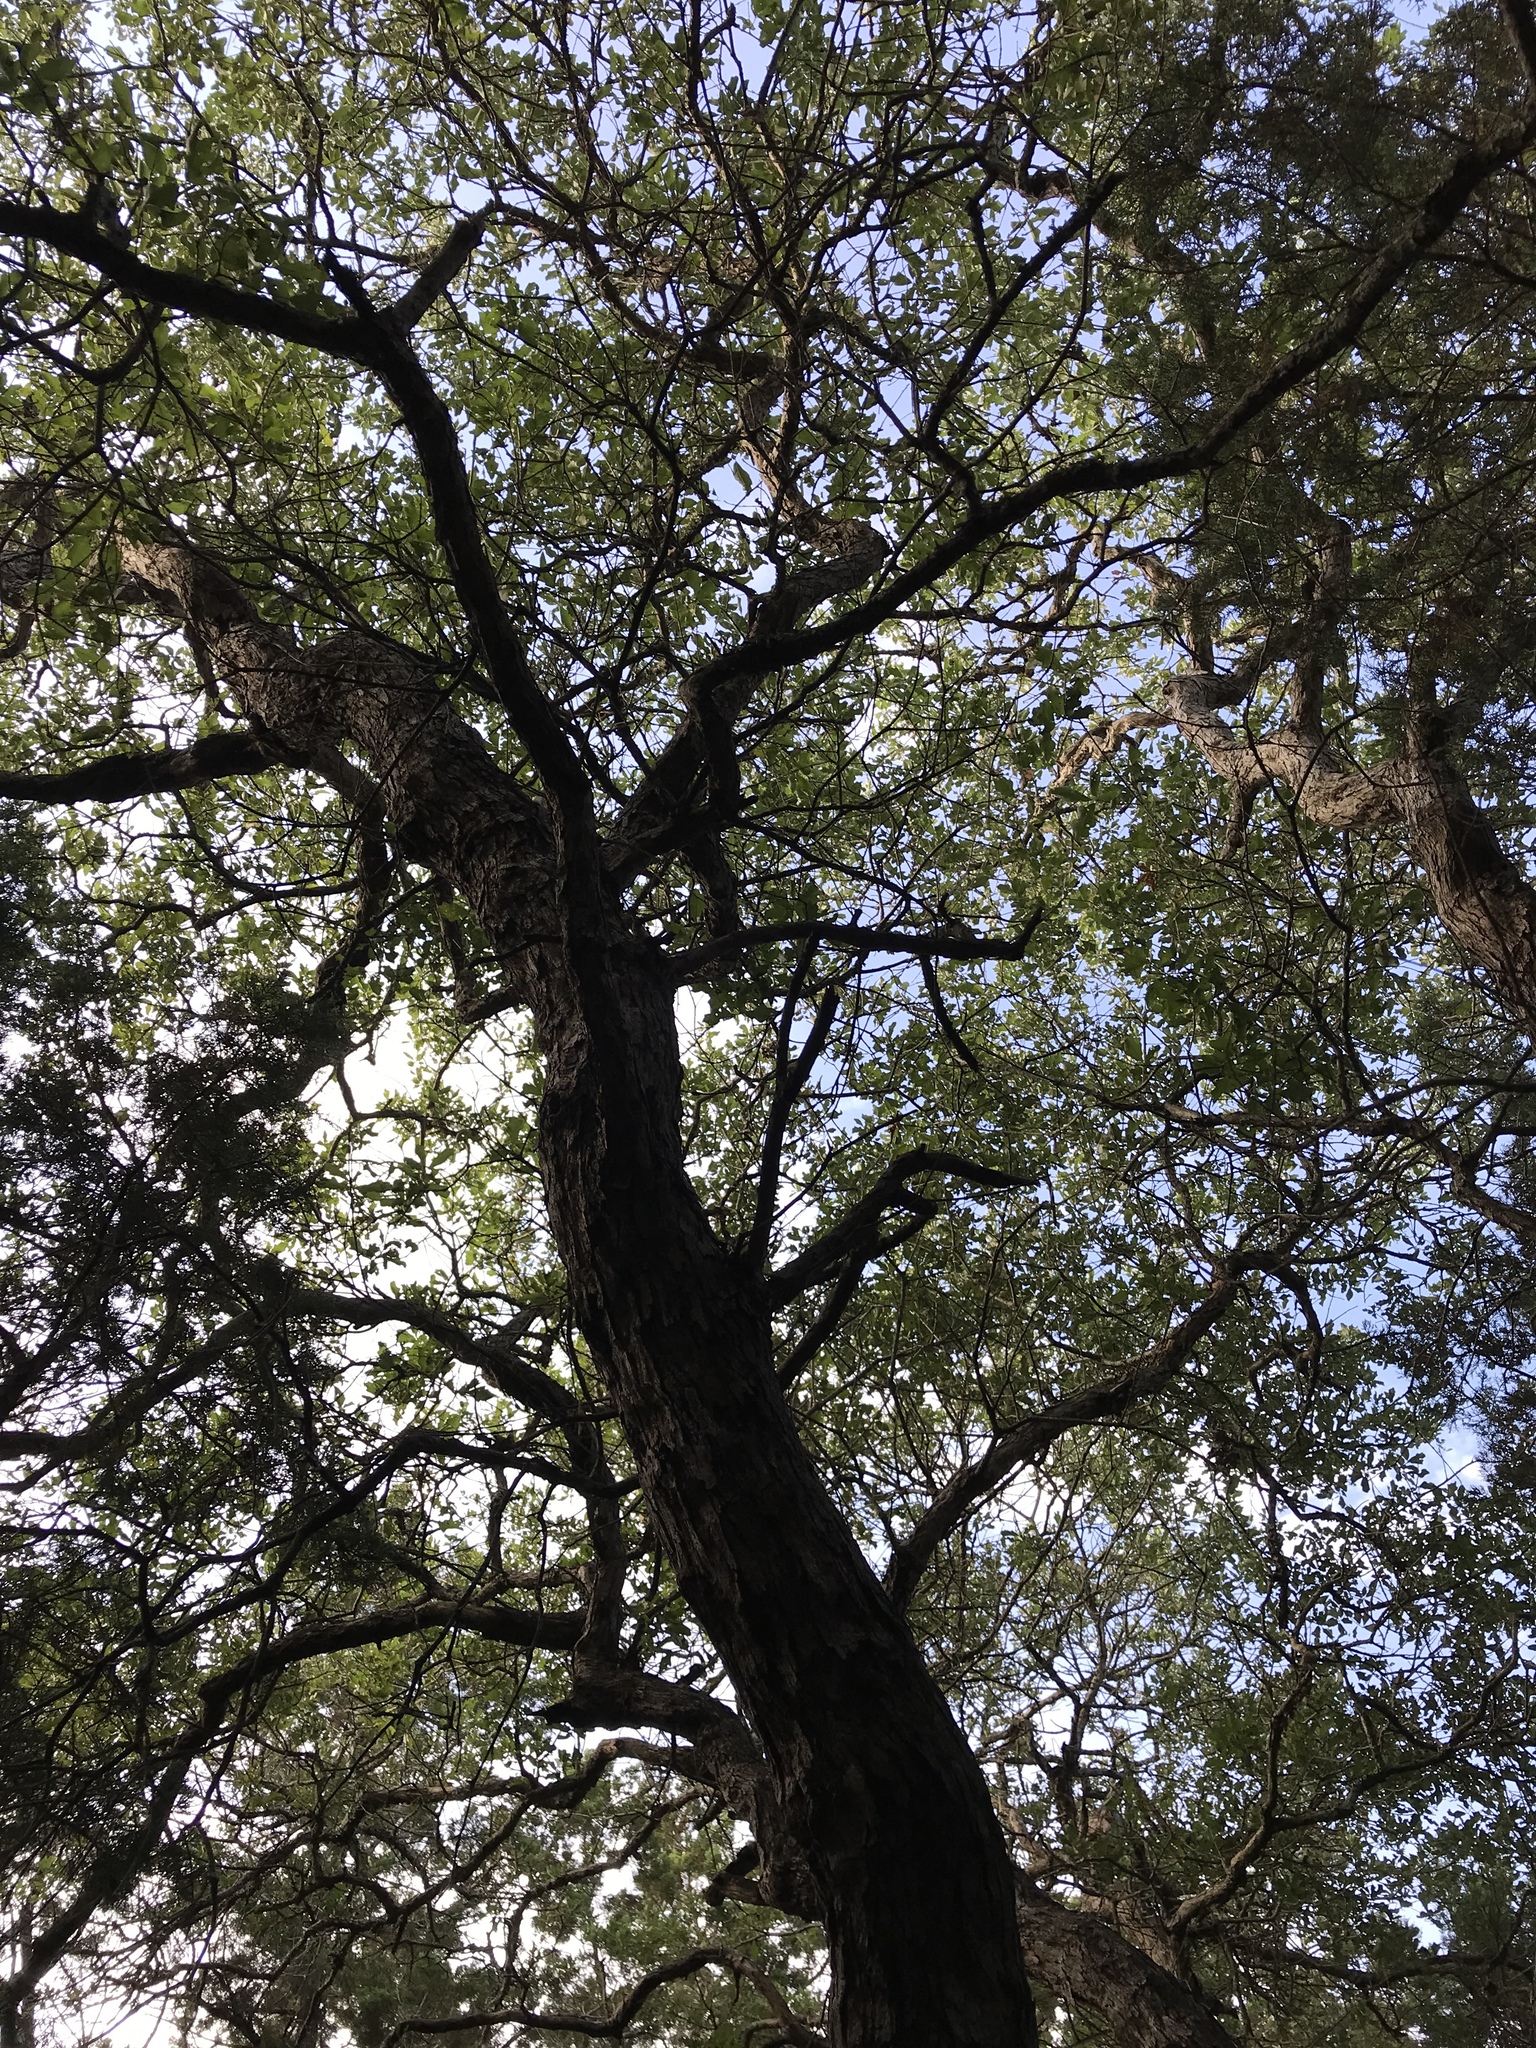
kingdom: Plantae
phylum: Tracheophyta
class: Magnoliopsida
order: Fagales
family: Fagaceae
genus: Quercus
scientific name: Quercus sinuata
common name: Durand oak
